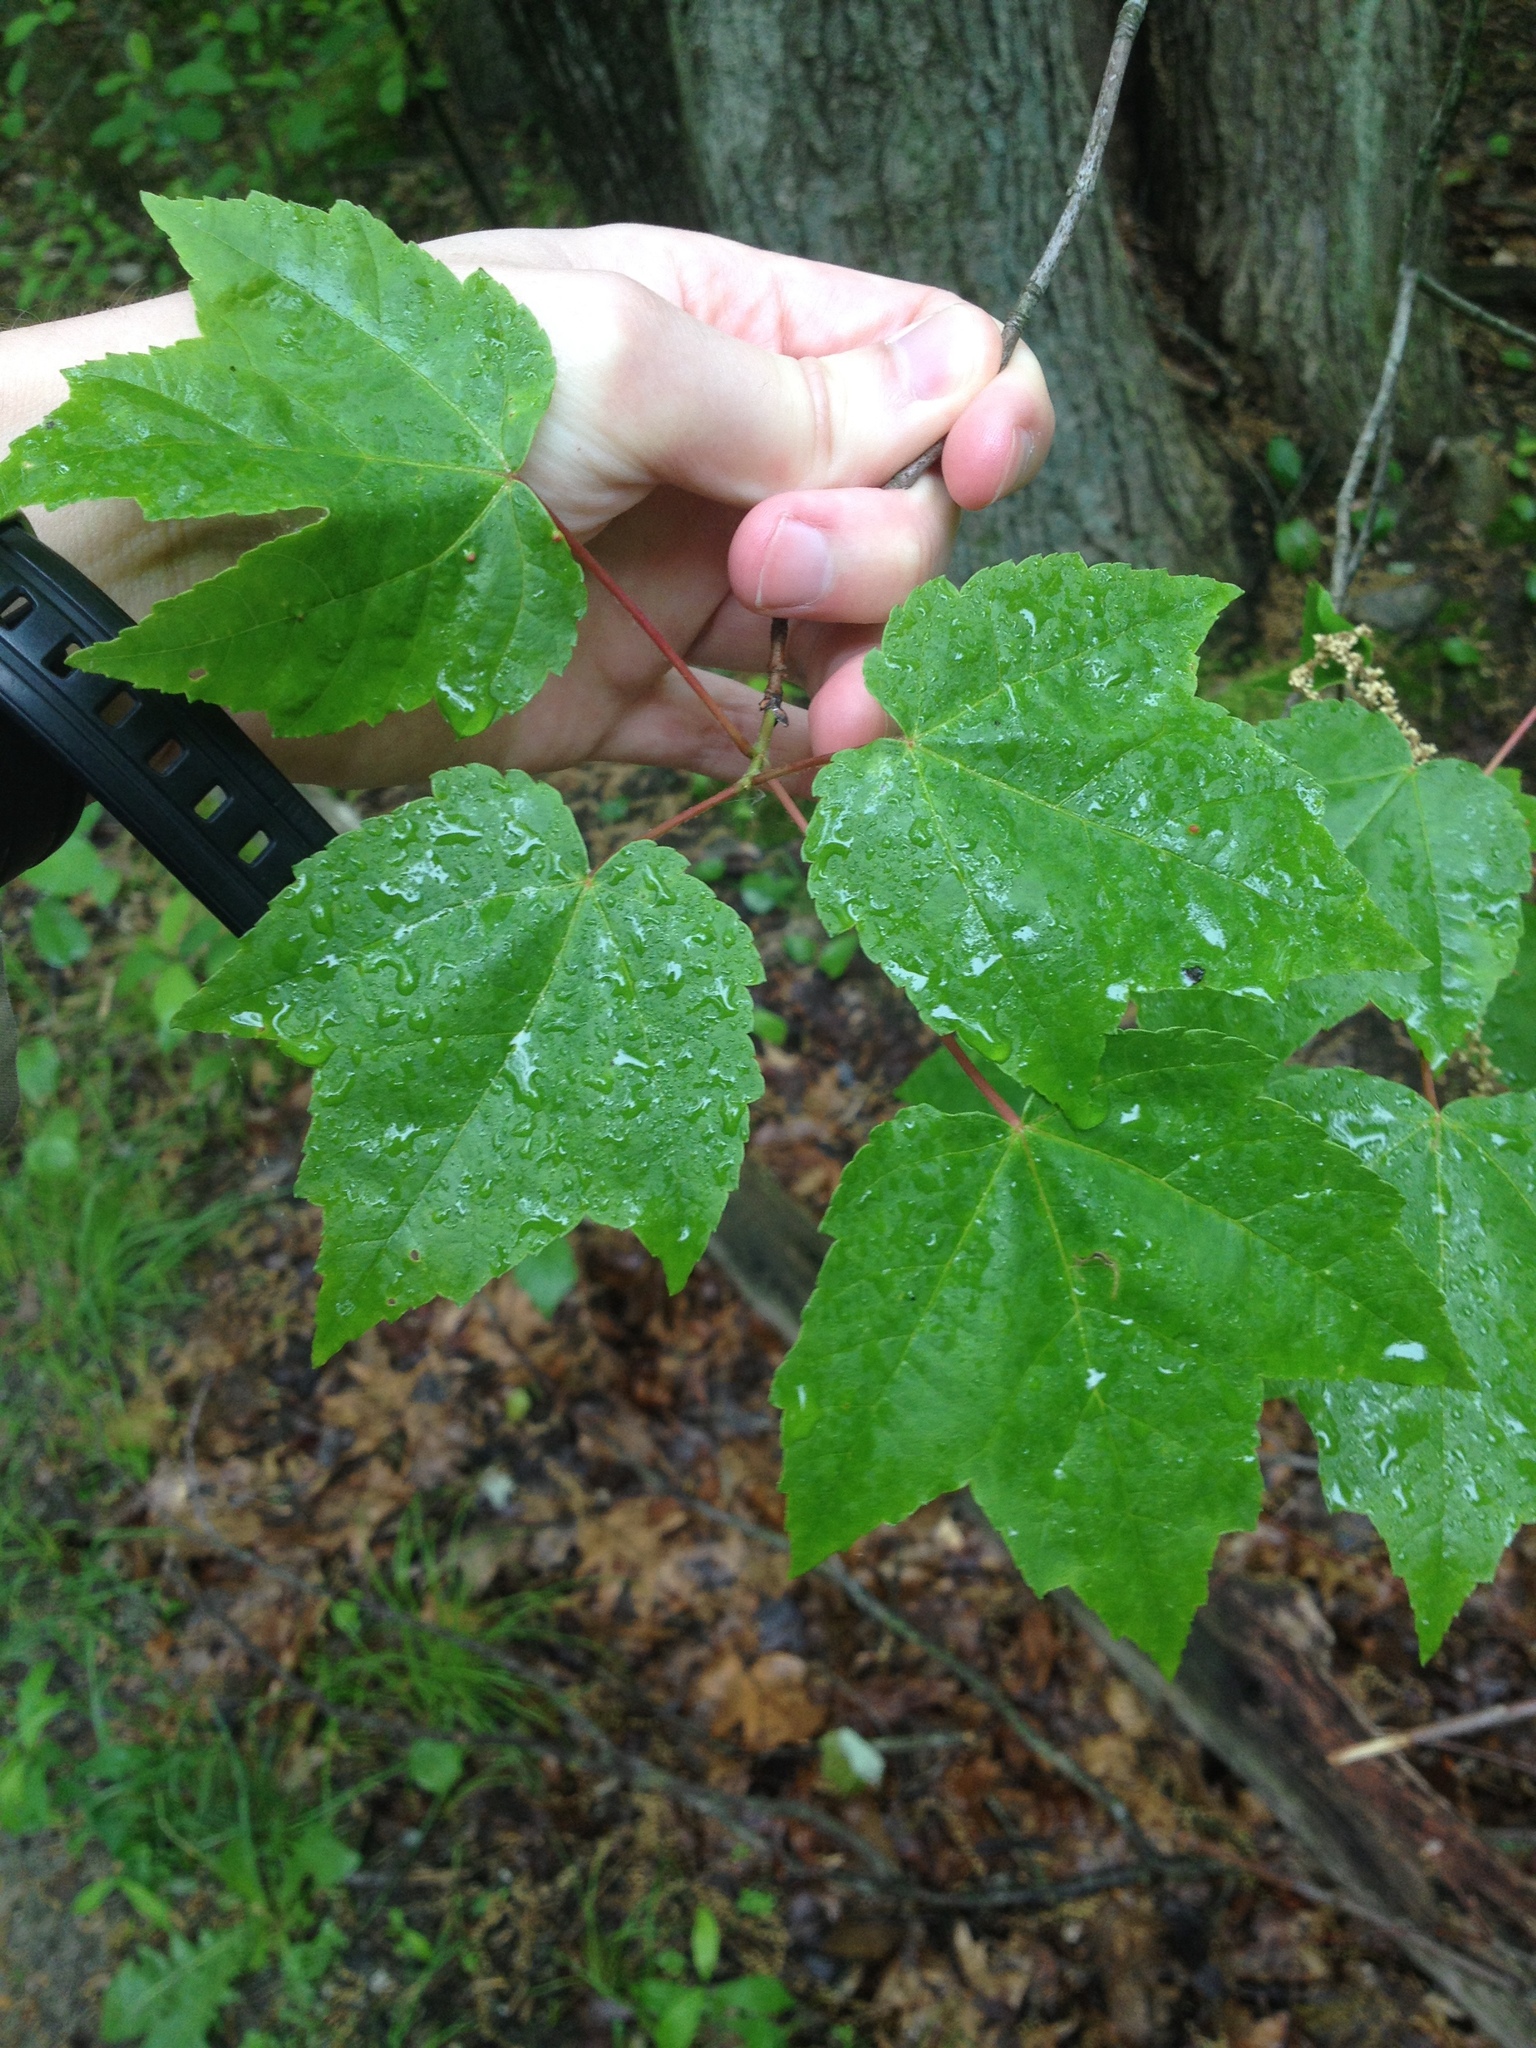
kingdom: Plantae
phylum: Tracheophyta
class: Magnoliopsida
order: Sapindales
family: Sapindaceae
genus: Acer
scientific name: Acer rubrum
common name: Red maple
